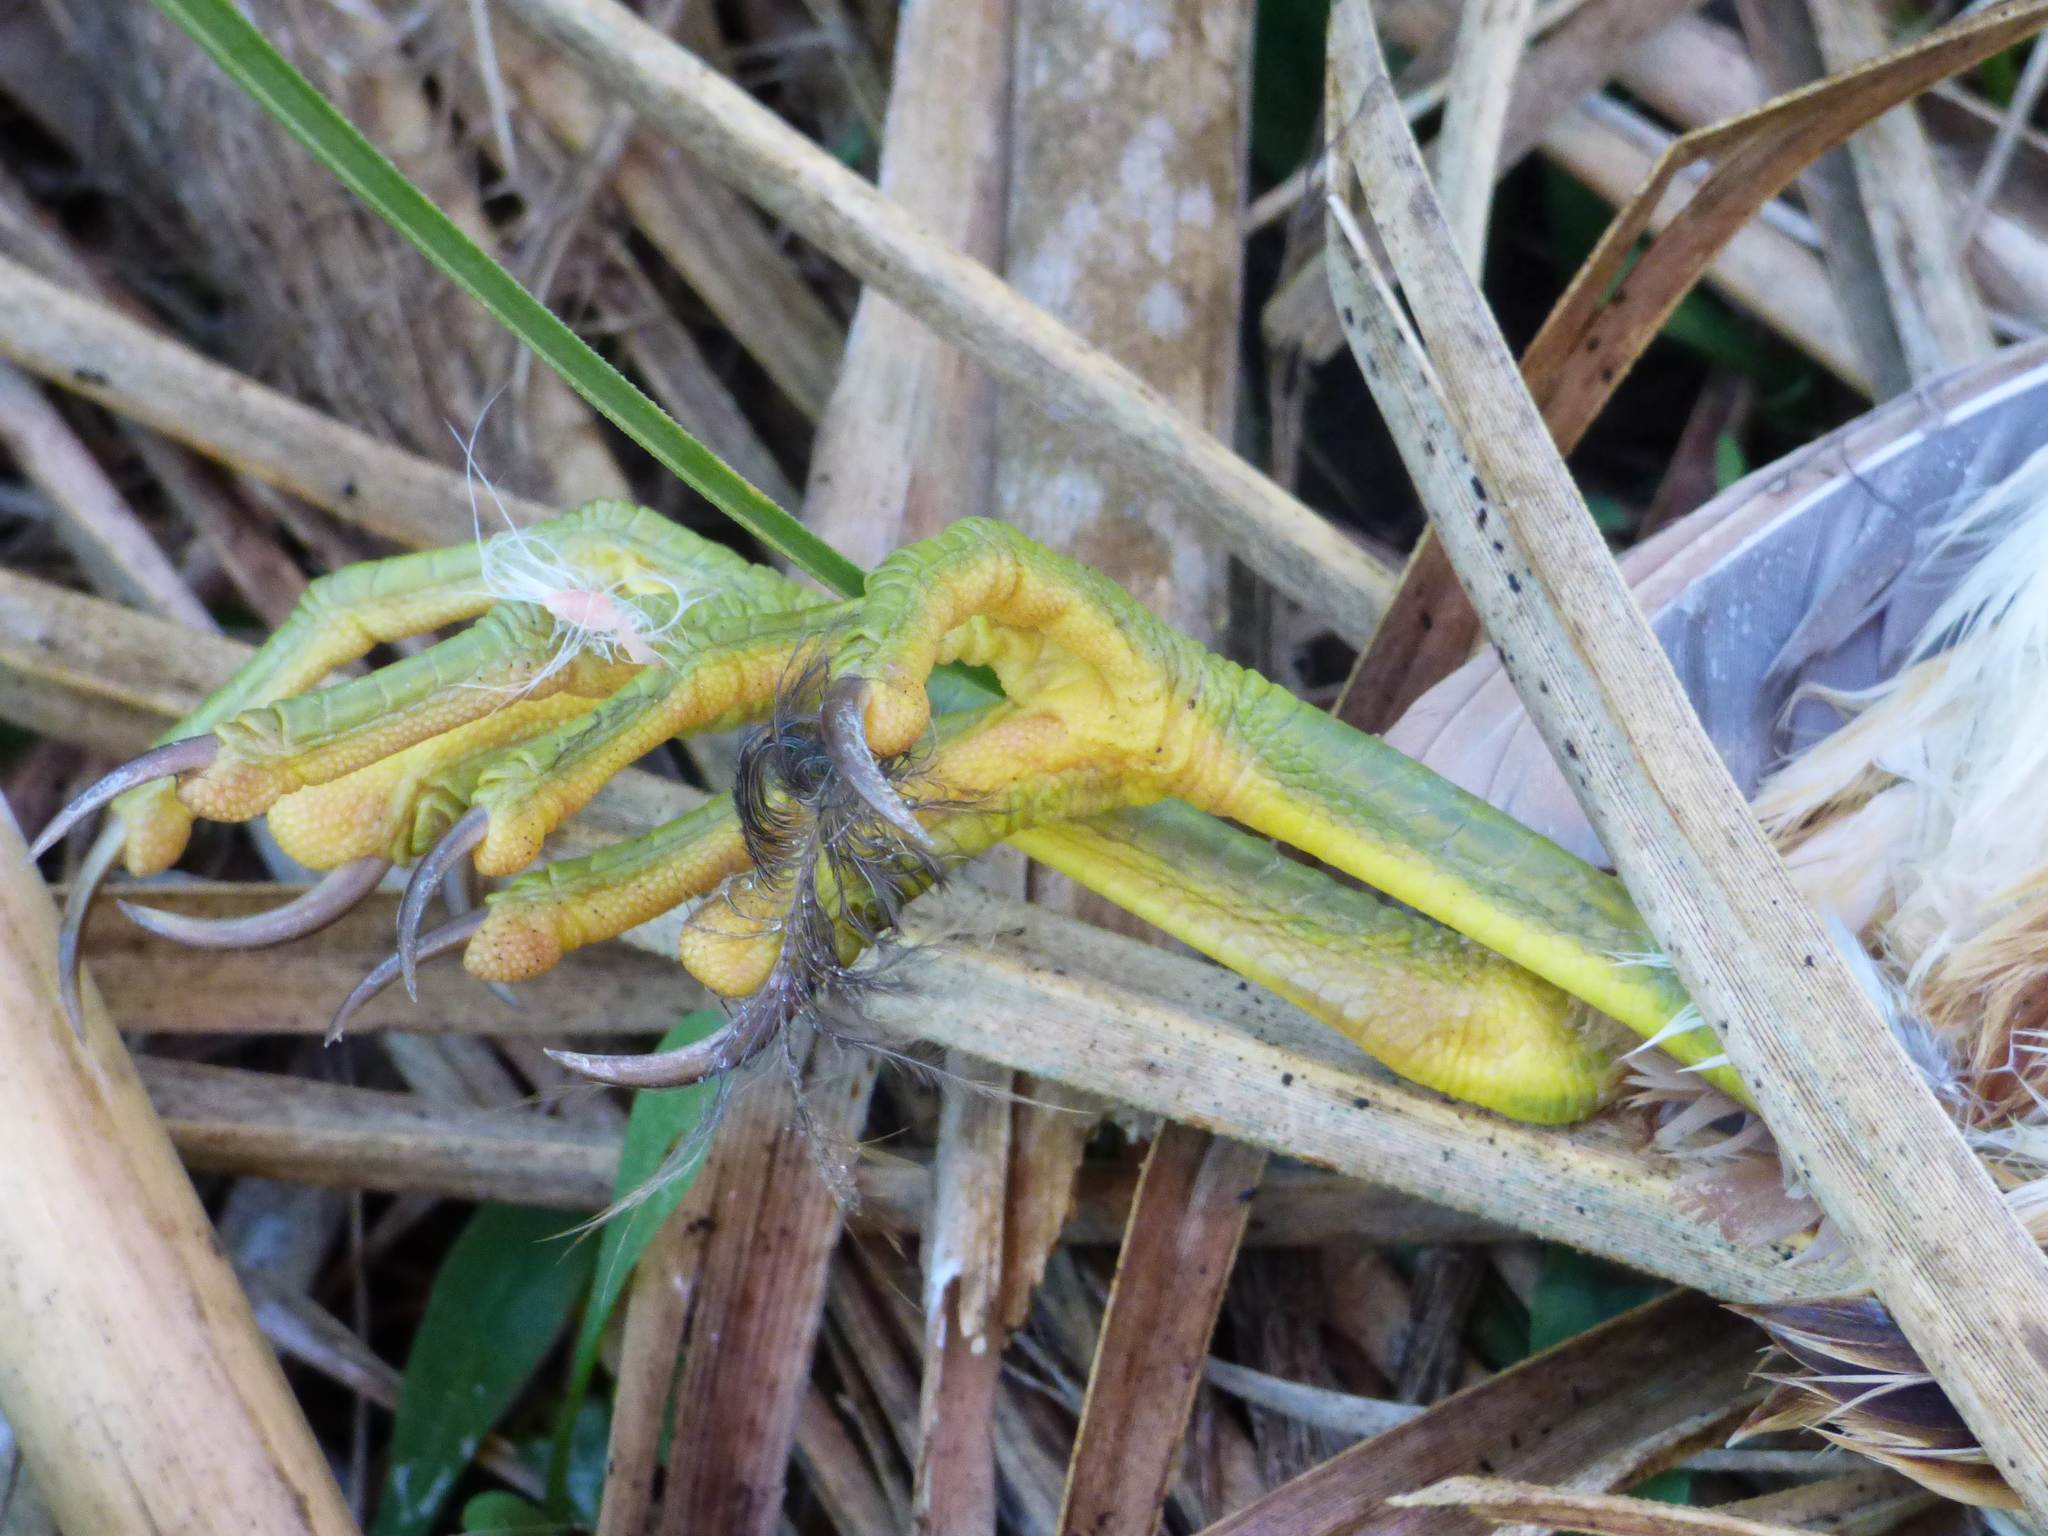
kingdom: Animalia
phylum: Chordata
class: Aves
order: Pelecaniformes
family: Ardeidae
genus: Ixobrychus
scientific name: Ixobrychus involucris
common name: Stripe-backed bittern
